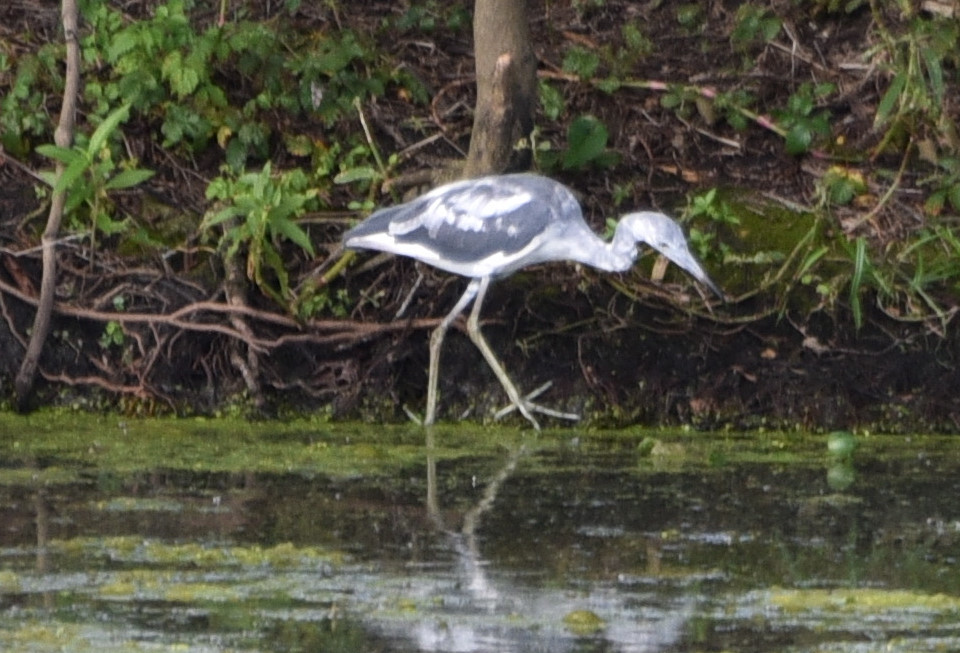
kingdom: Animalia
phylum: Chordata
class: Aves
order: Pelecaniformes
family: Ardeidae
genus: Egretta
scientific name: Egretta caerulea
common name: Little blue heron
